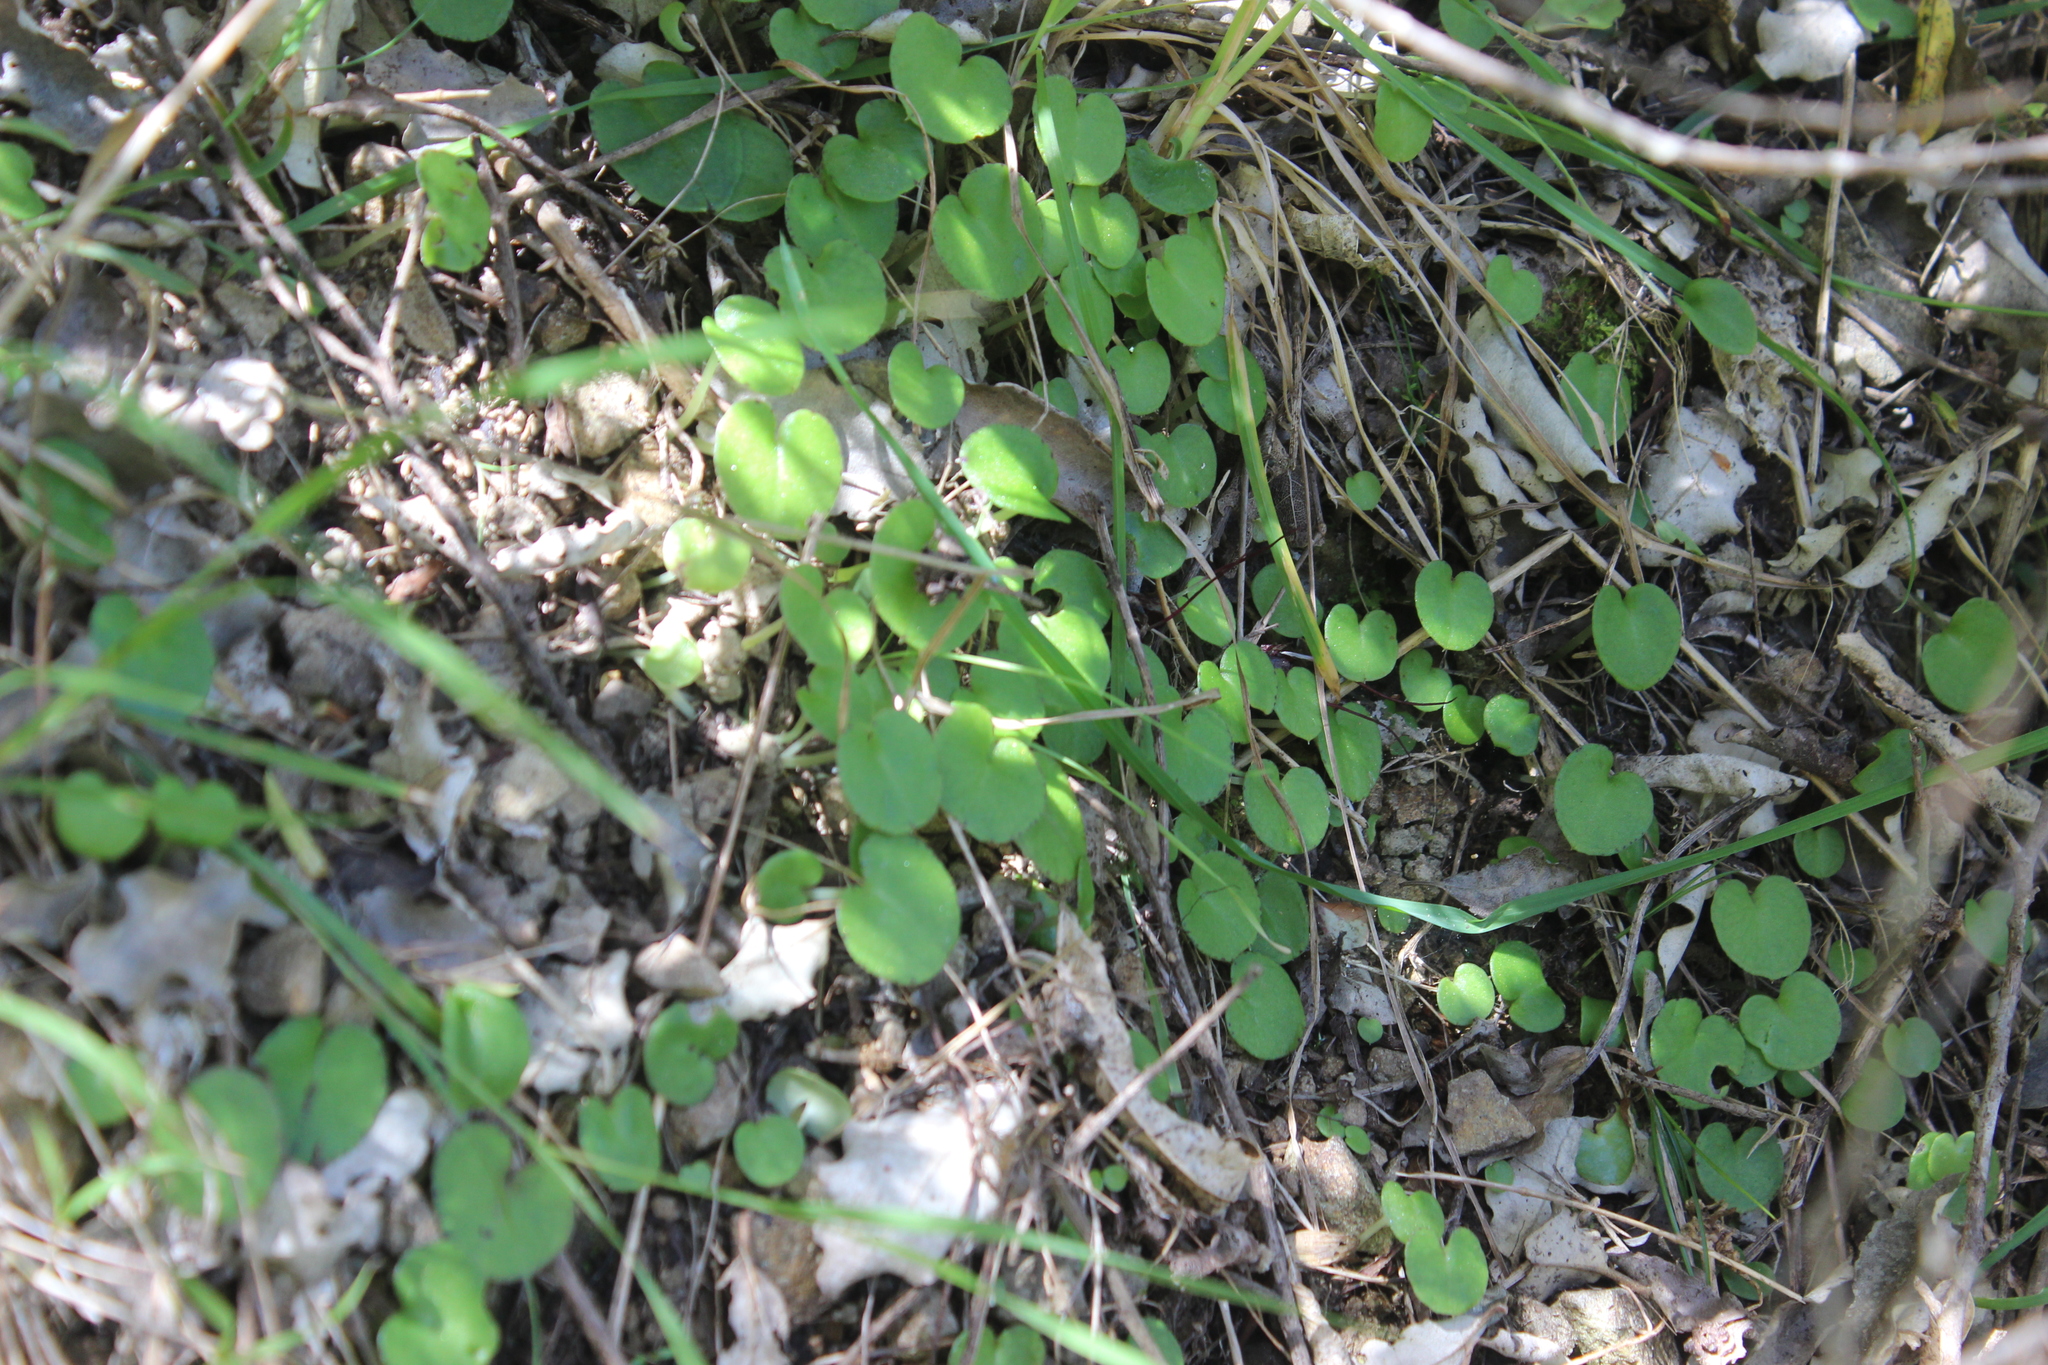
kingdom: Plantae
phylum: Tracheophyta
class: Liliopsida
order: Asparagales
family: Orchidaceae
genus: Corybas
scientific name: Corybas macranthus
